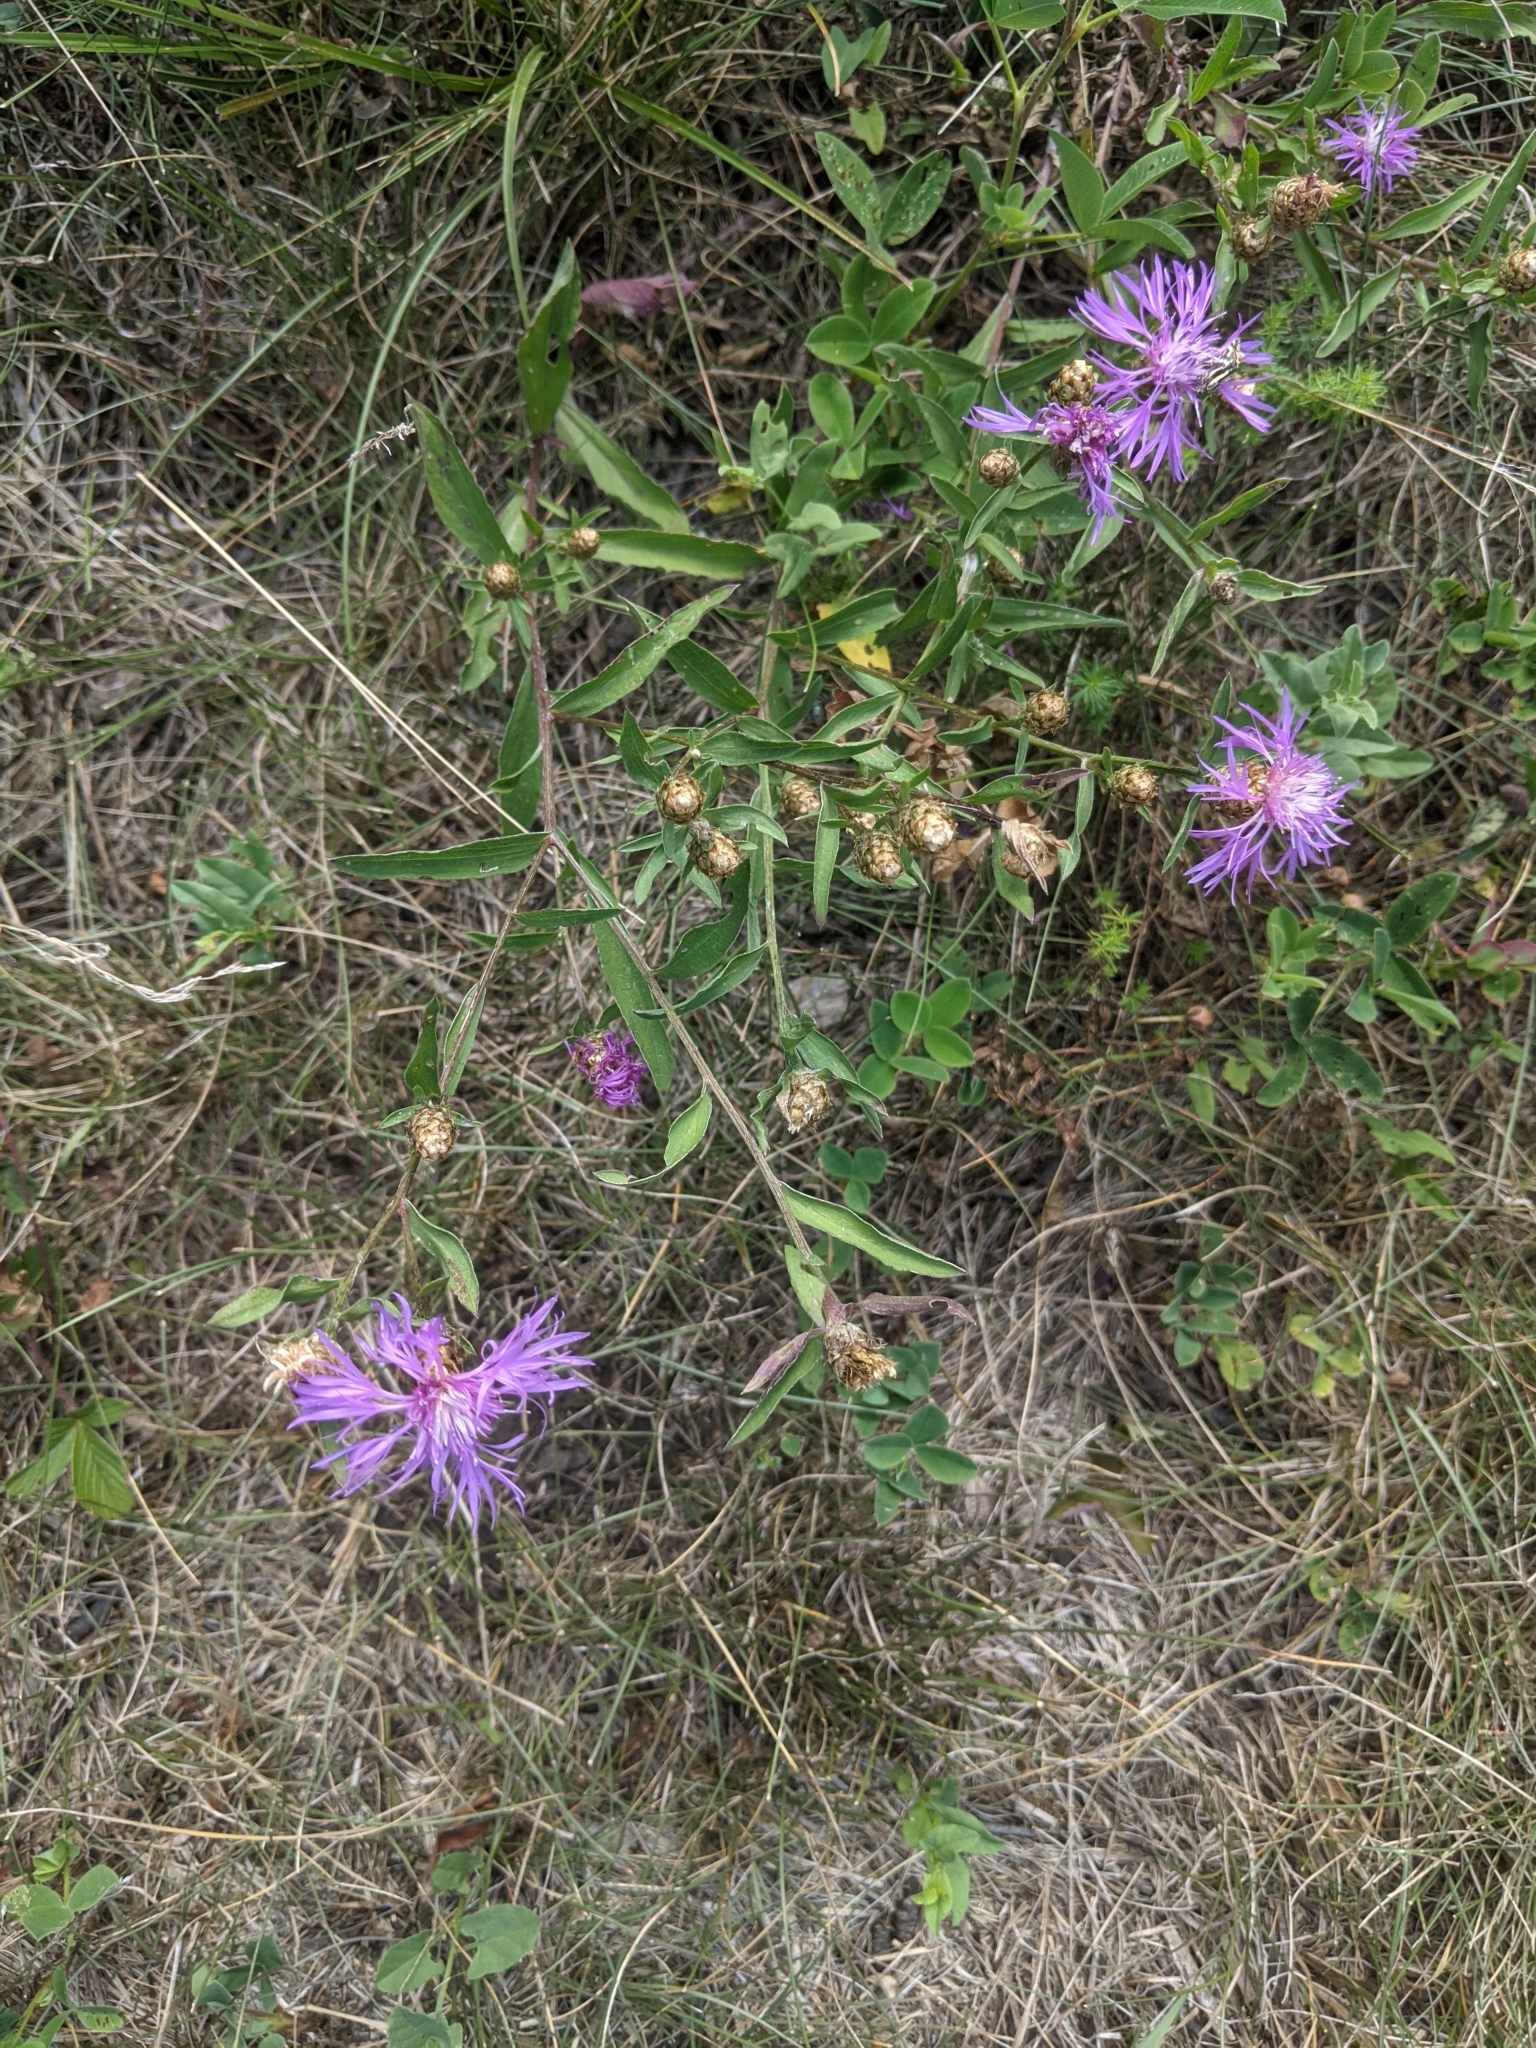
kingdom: Plantae
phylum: Tracheophyta
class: Magnoliopsida
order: Asterales
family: Asteraceae
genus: Centaurea
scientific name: Centaurea jacea
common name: Brown knapweed
